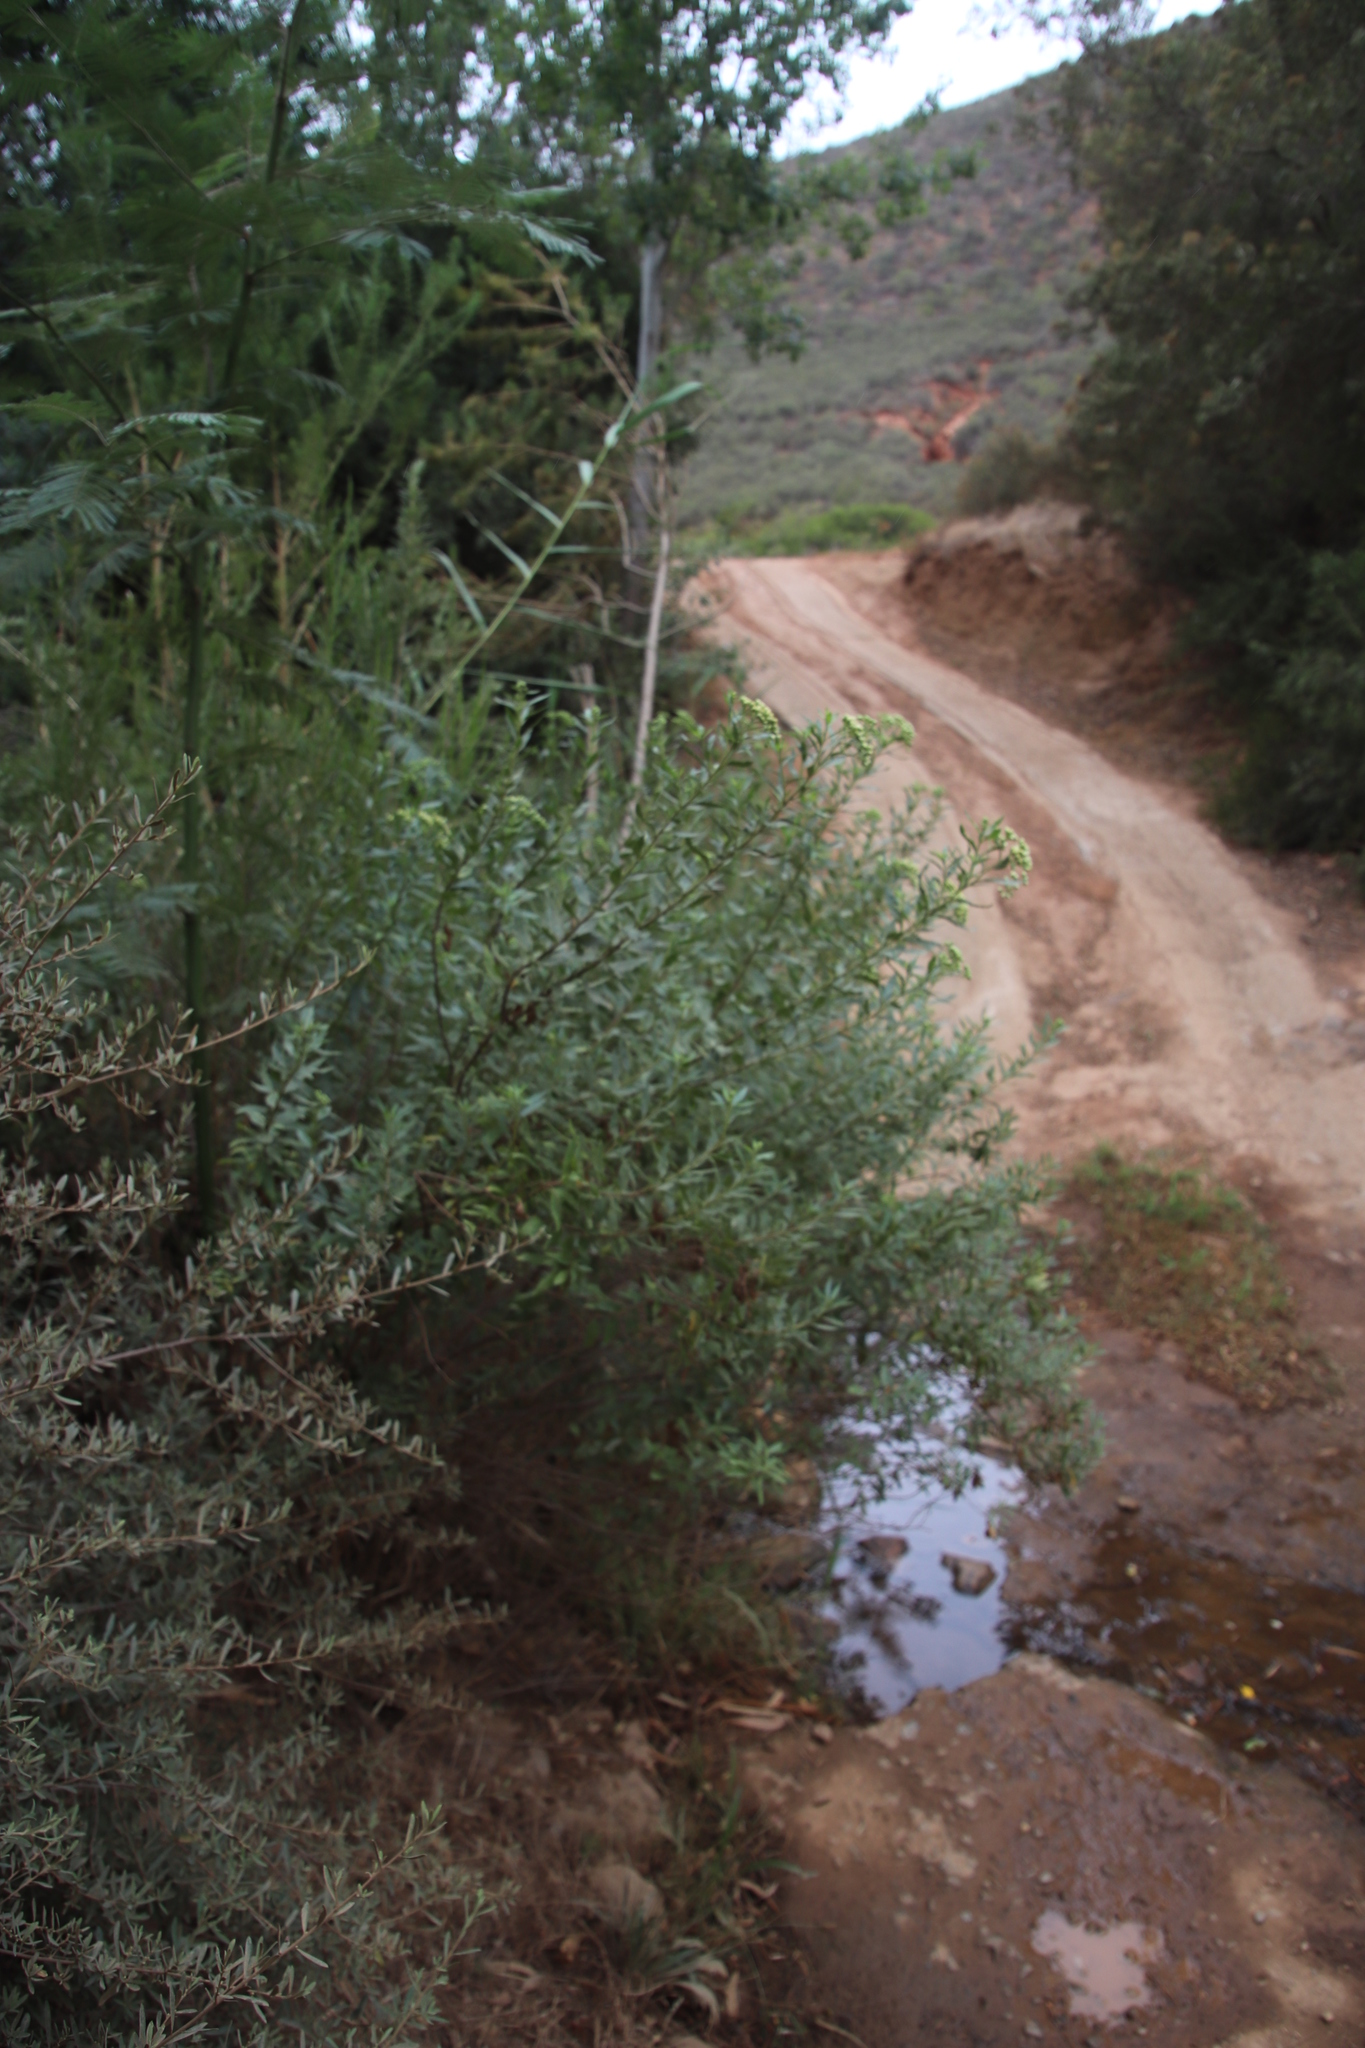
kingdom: Plantae
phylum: Tracheophyta
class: Magnoliopsida
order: Asterales
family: Asteraceae
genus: Nidorella
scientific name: Nidorella ivifolia
